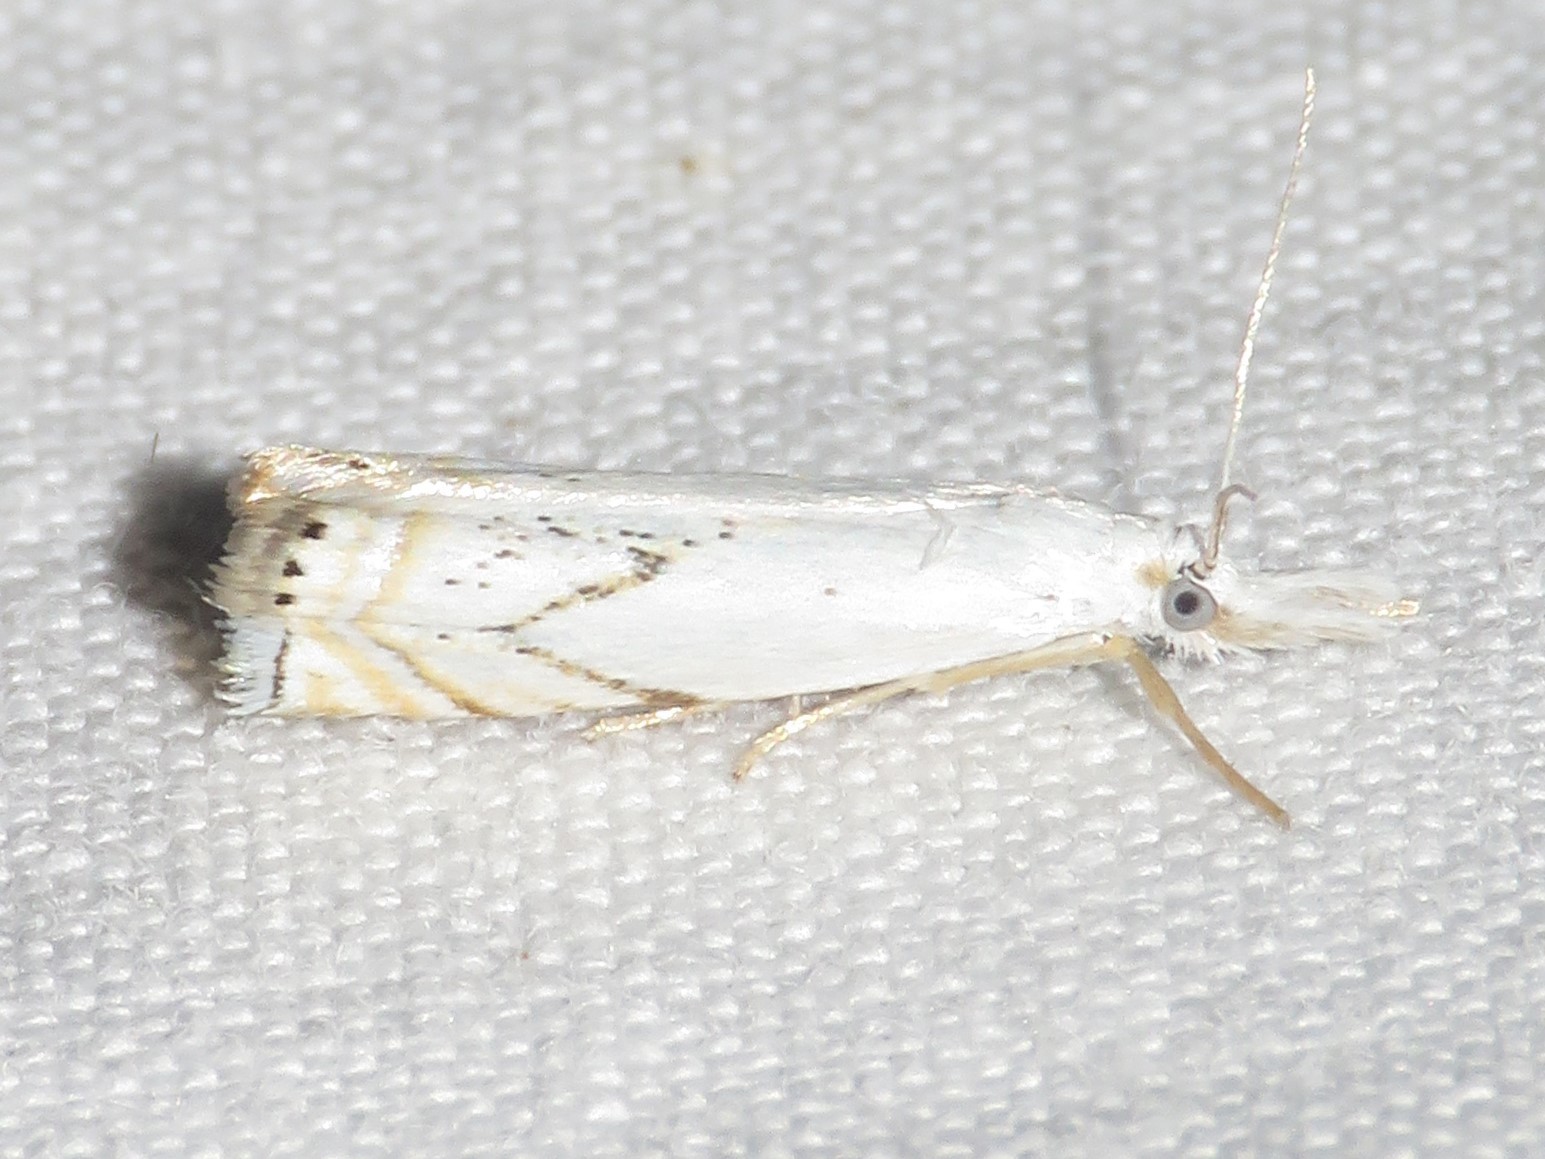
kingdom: Animalia
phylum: Arthropoda
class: Insecta
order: Lepidoptera
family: Crambidae
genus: Crambus
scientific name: Crambus albellus
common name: Small white grass-veneer
